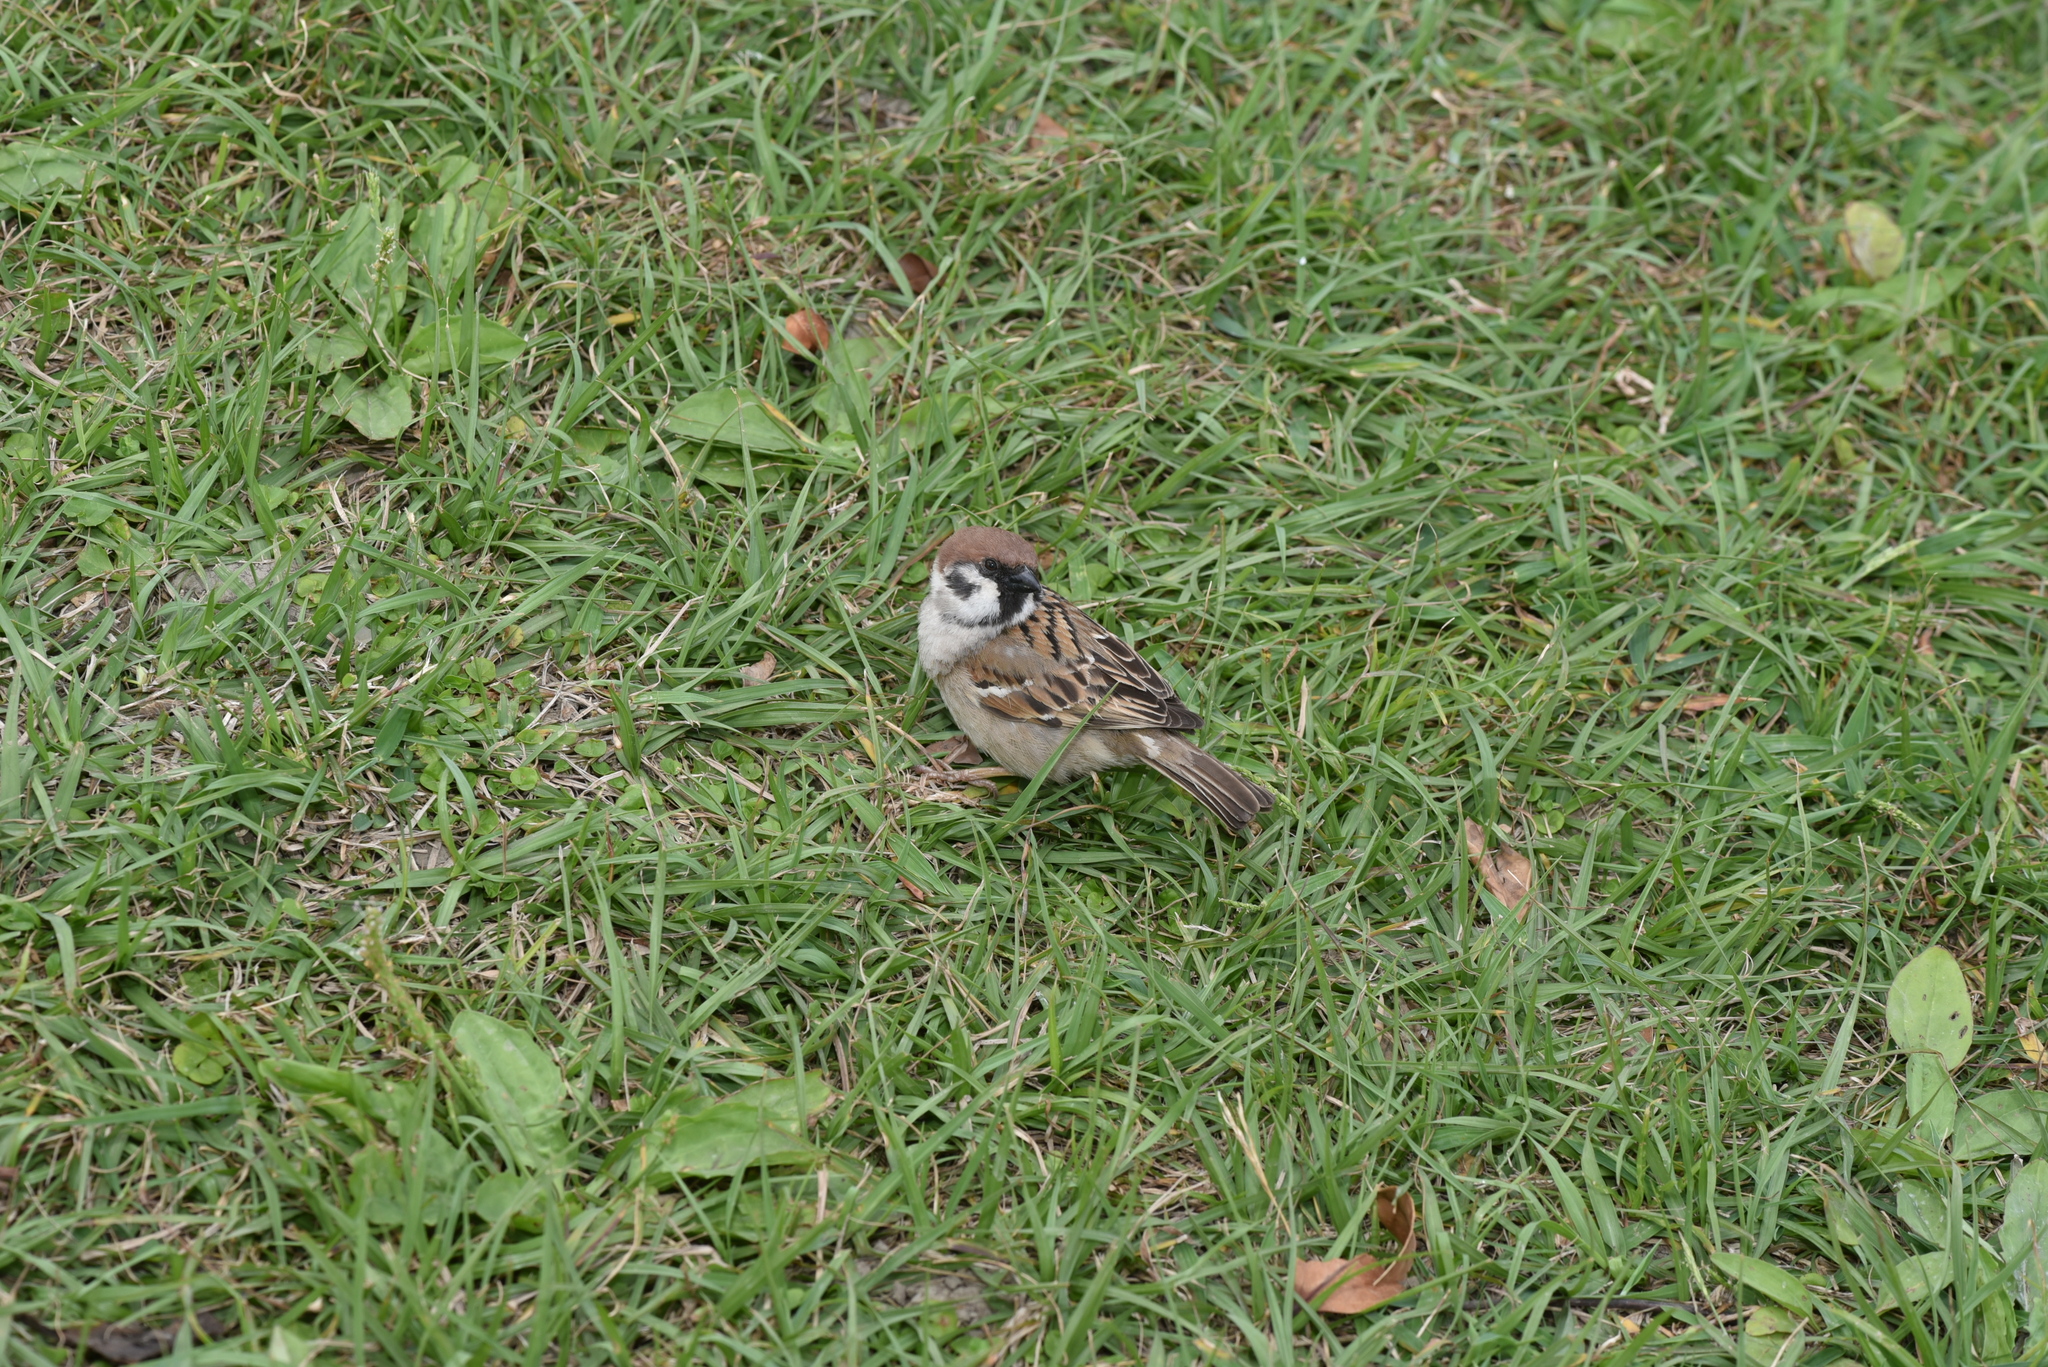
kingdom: Animalia
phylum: Chordata
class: Aves
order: Passeriformes
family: Passeridae
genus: Passer
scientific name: Passer montanus
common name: Eurasian tree sparrow
